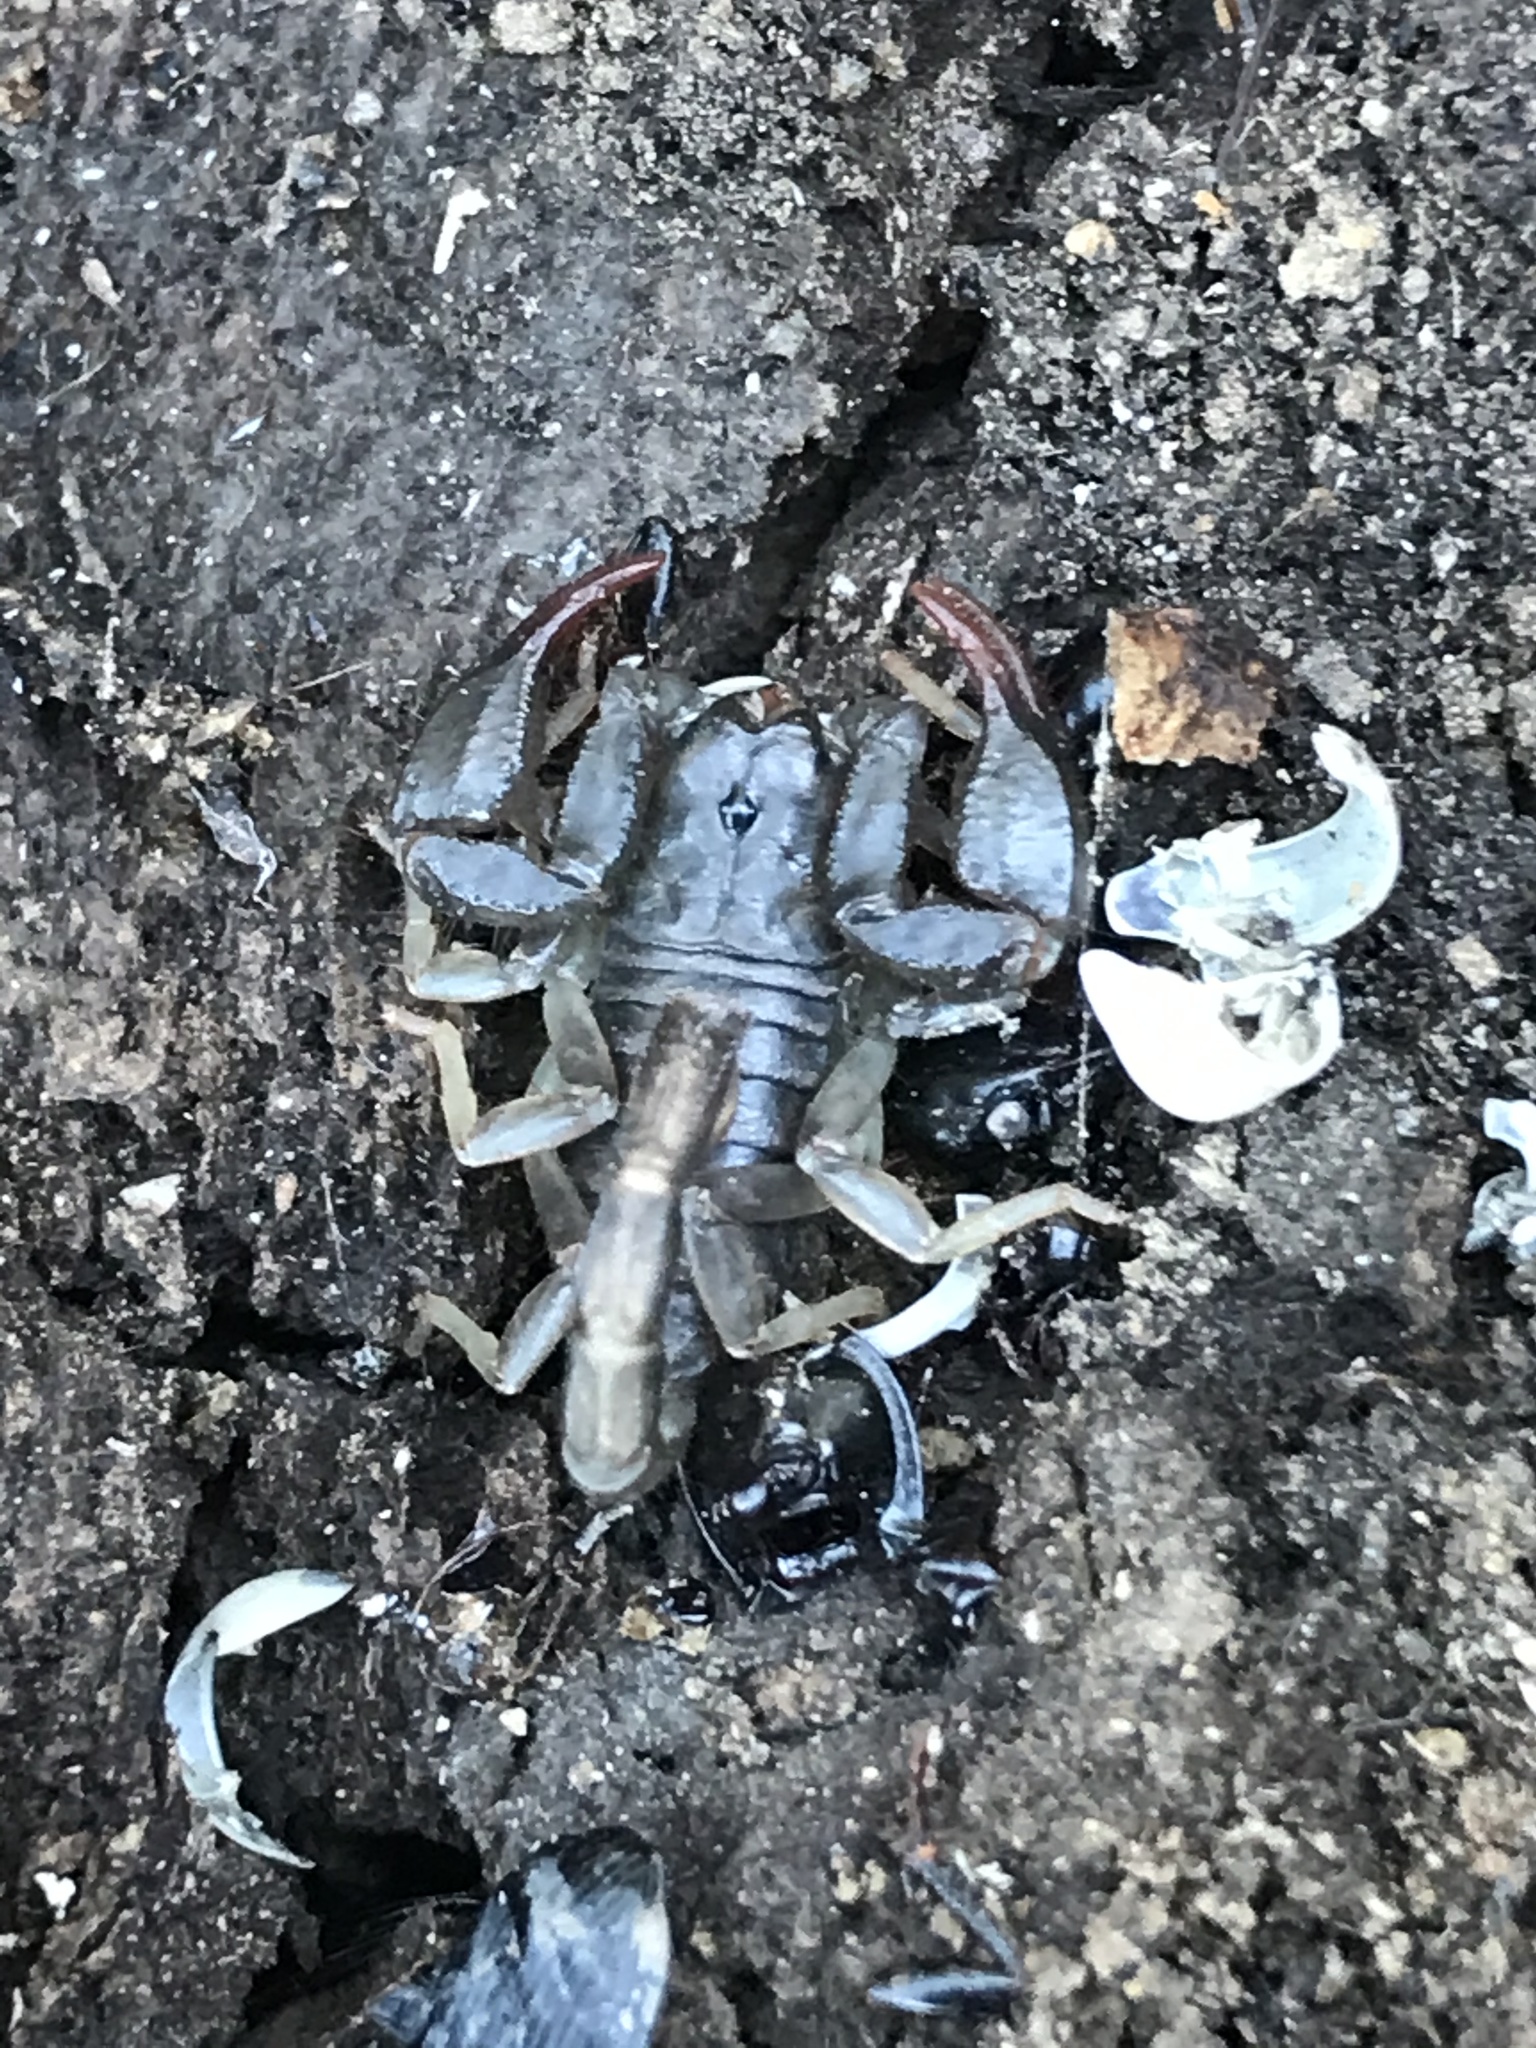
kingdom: Animalia
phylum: Arthropoda
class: Arachnida
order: Scorpiones
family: Chactidae
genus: Uroctonus
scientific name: Uroctonus mordax
